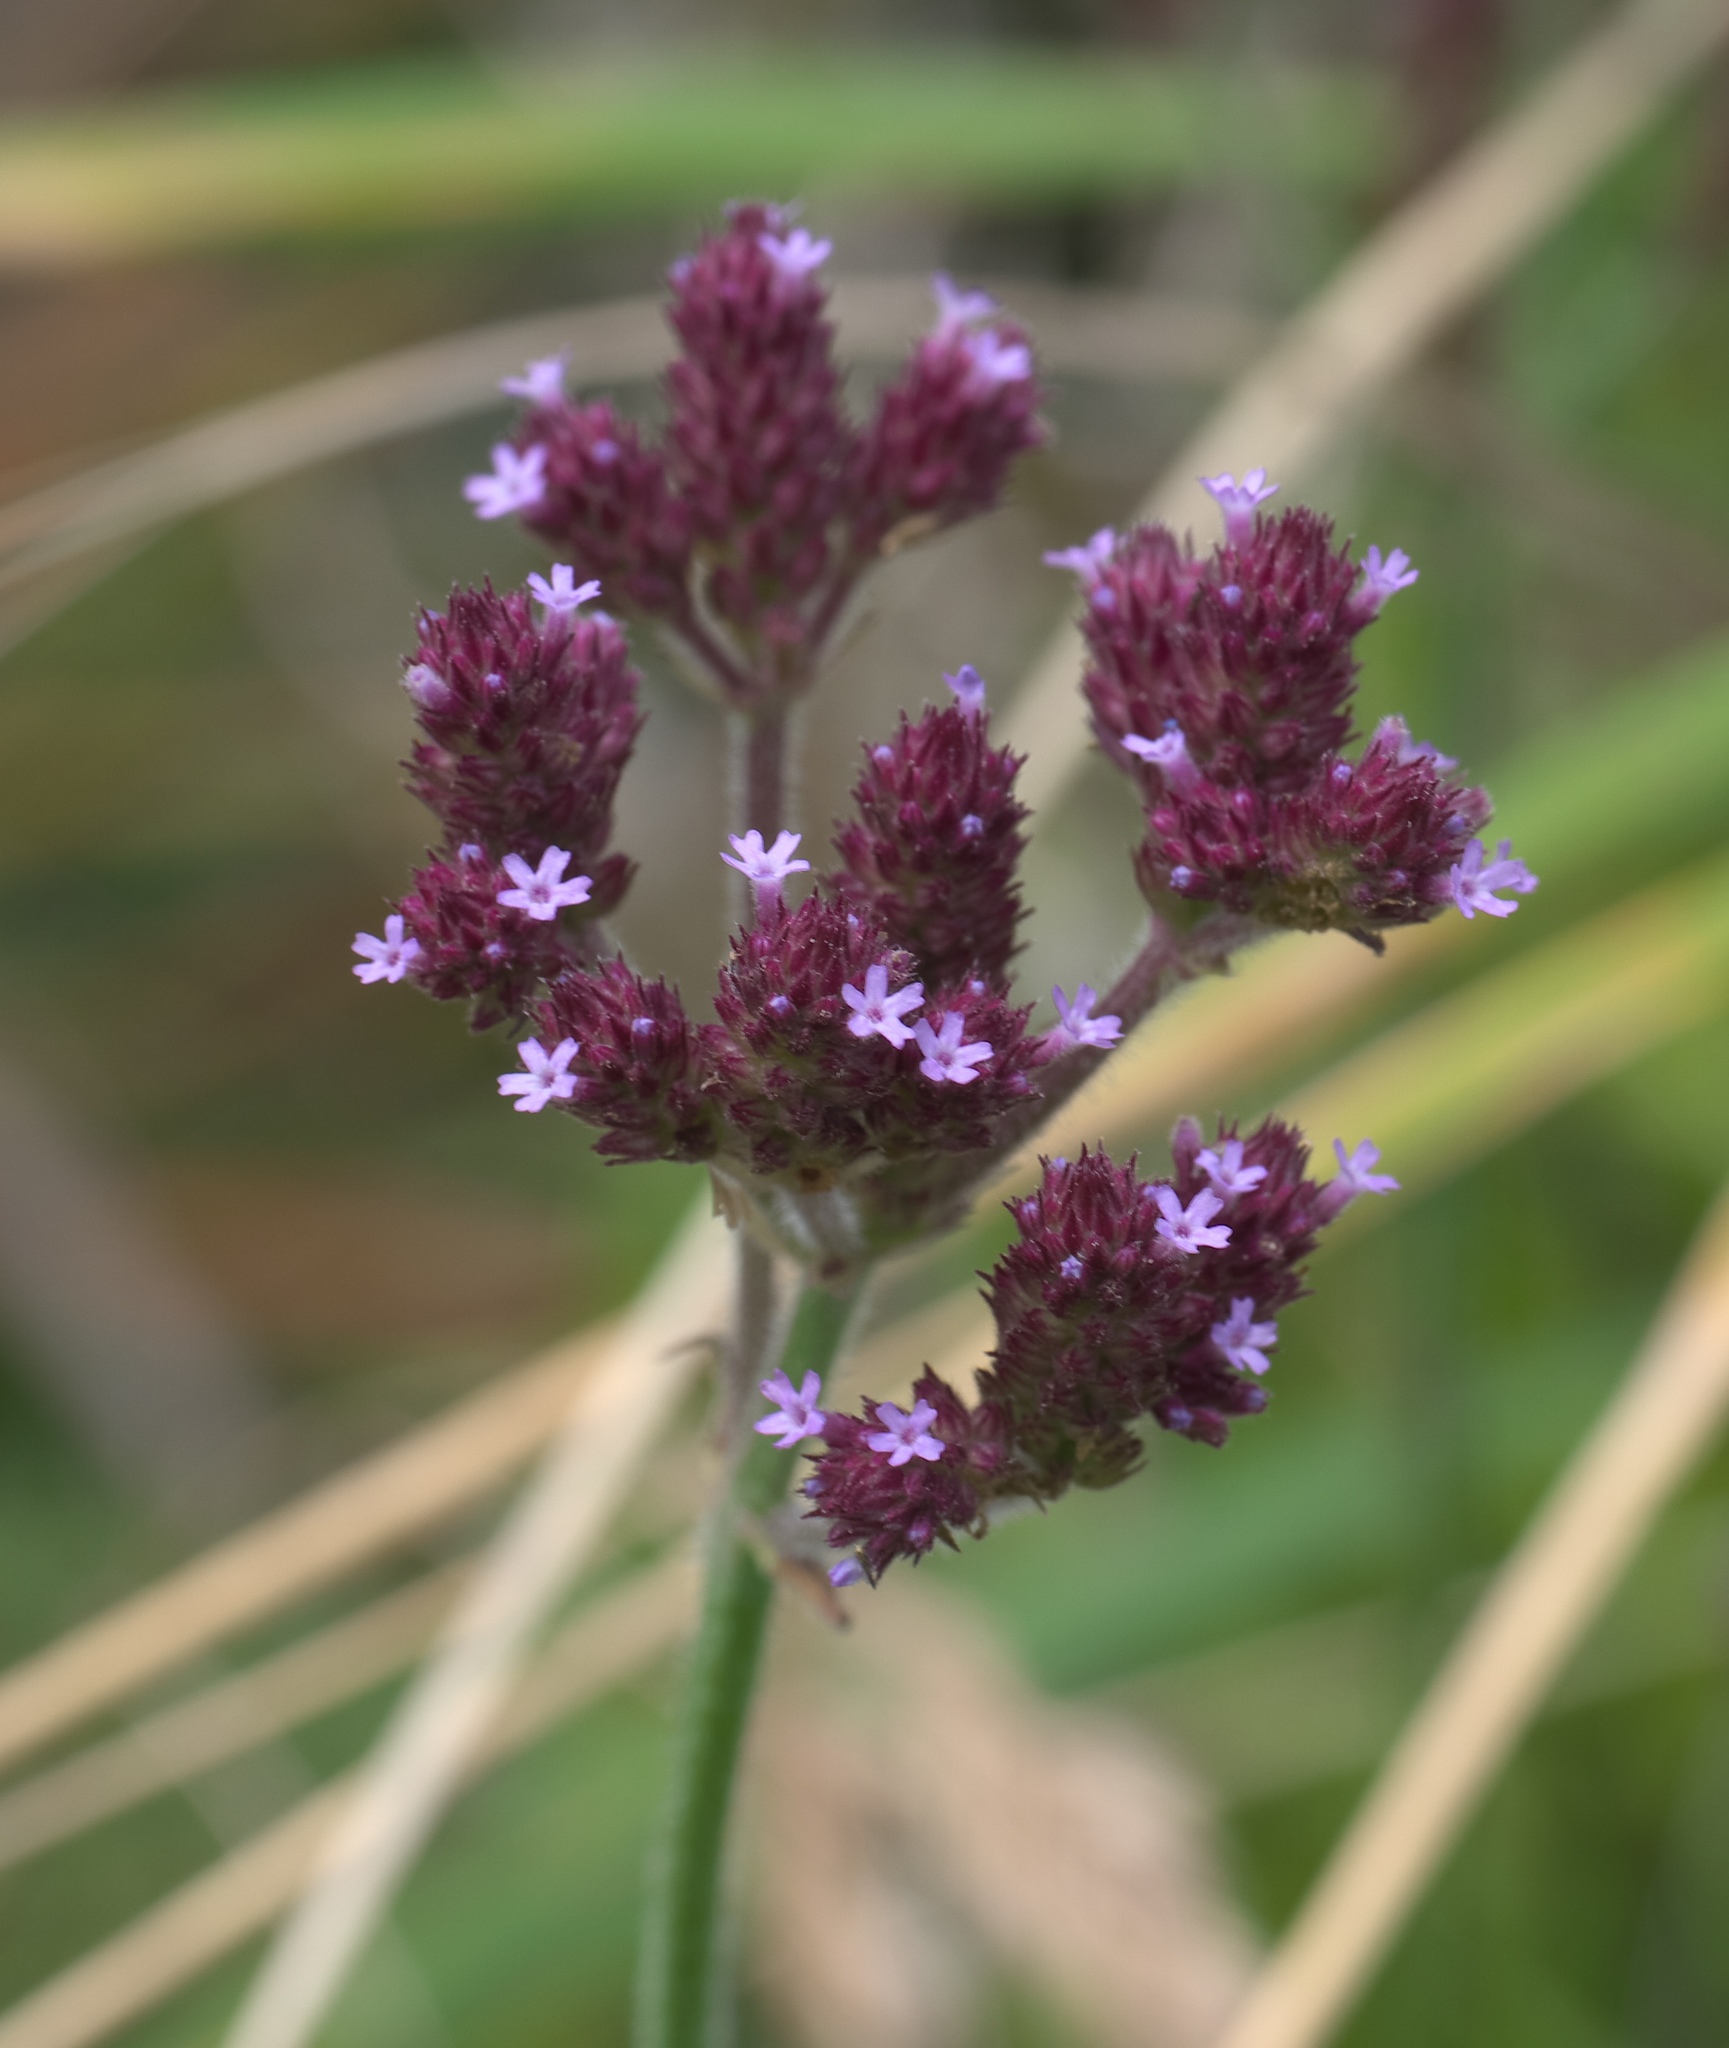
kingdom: Plantae
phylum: Tracheophyta
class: Magnoliopsida
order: Lamiales
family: Verbenaceae
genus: Verbena
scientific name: Verbena incompta
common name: Purpletop vervain
